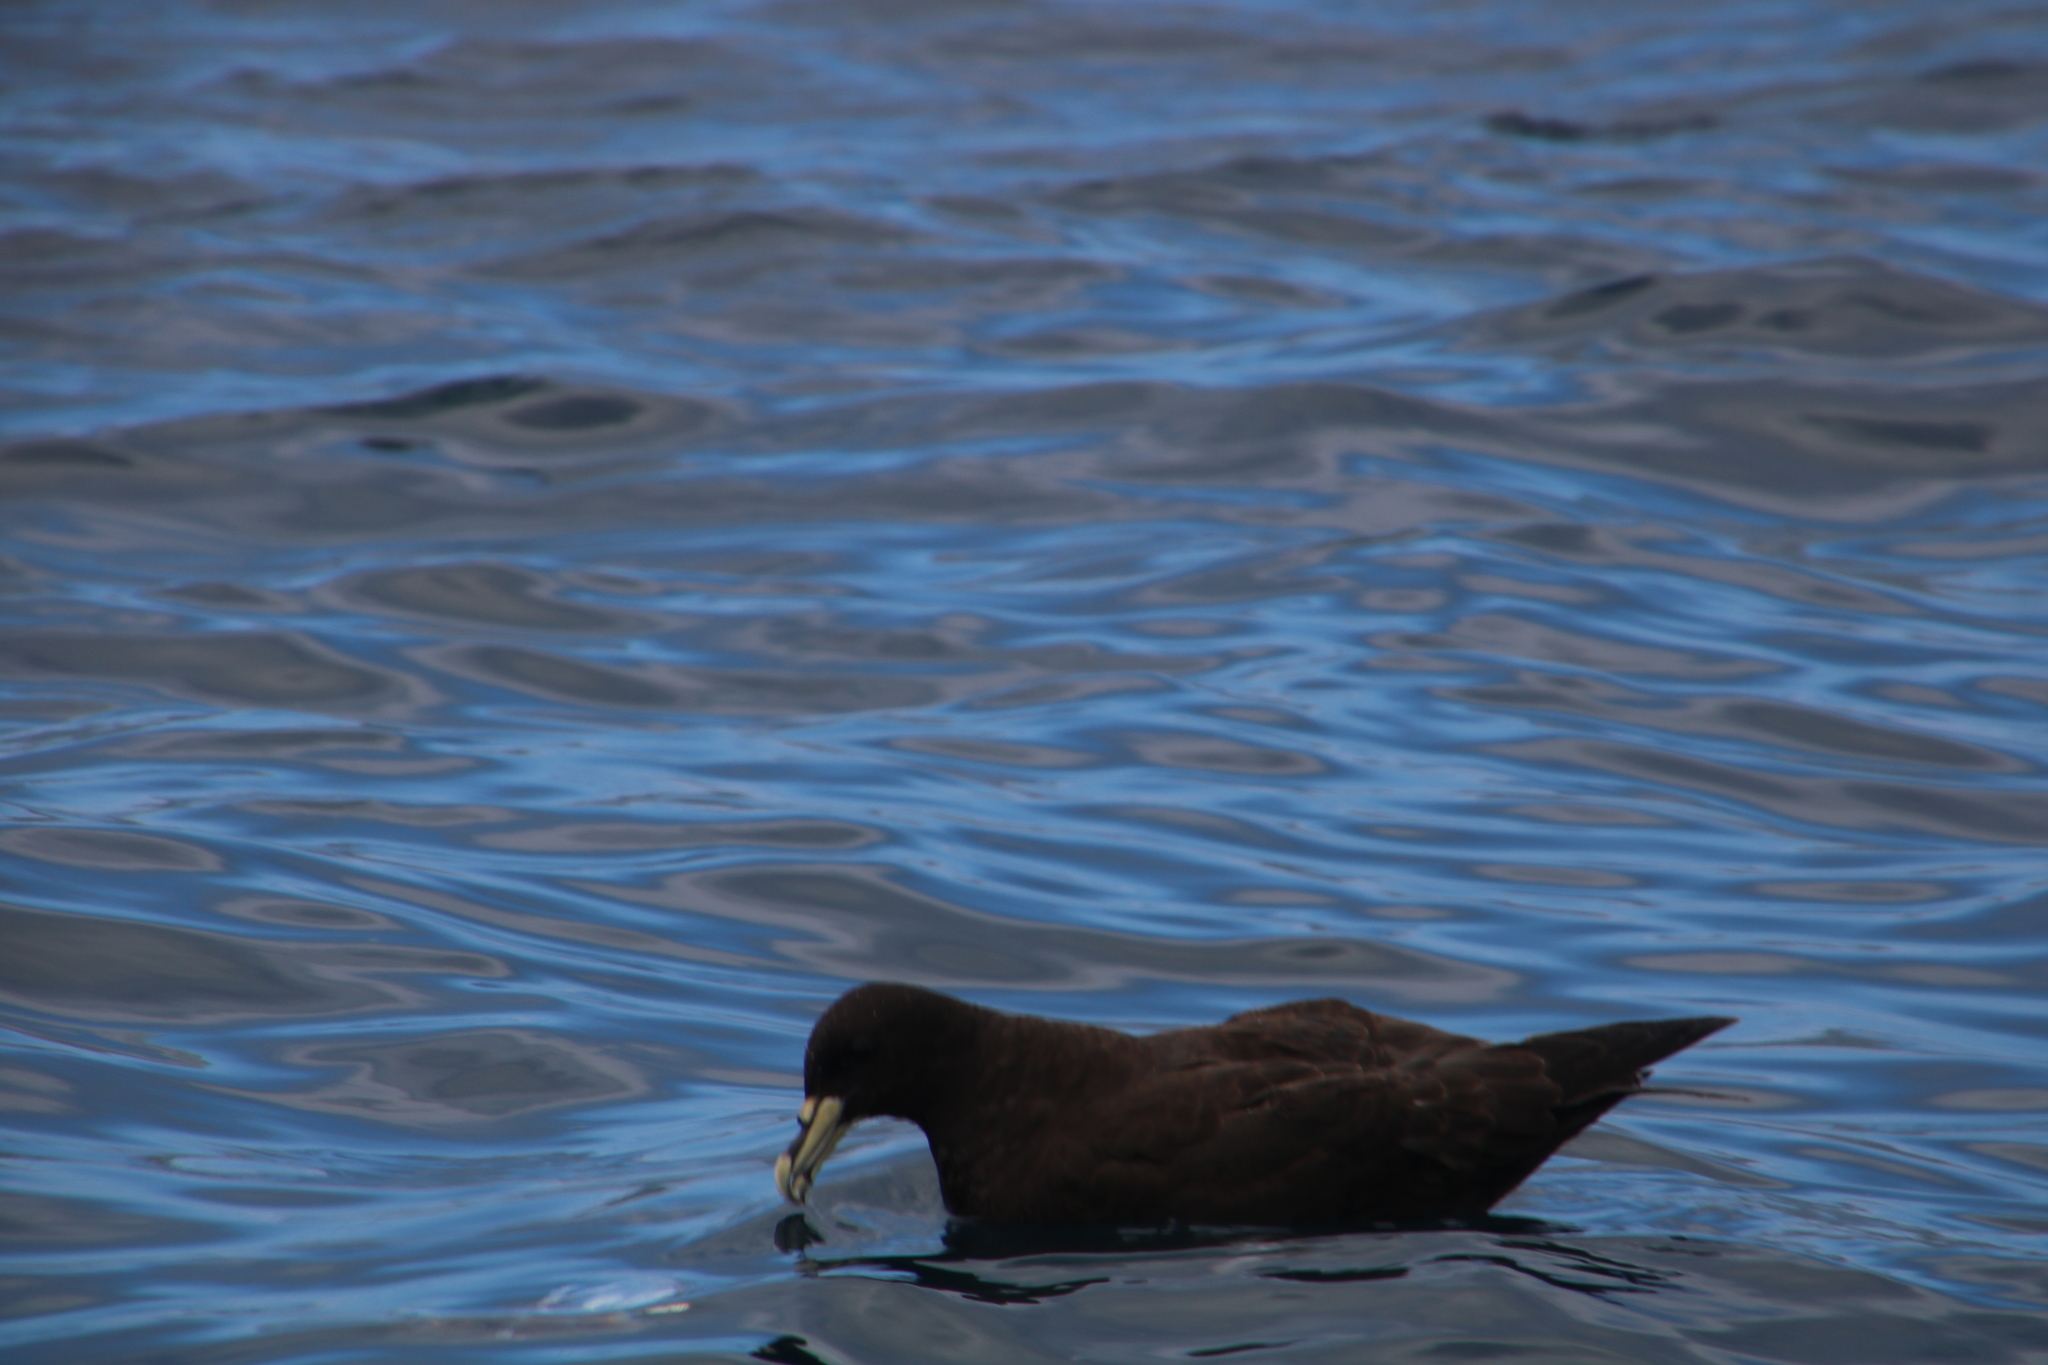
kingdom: Animalia
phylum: Chordata
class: Aves
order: Procellariiformes
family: Procellariidae
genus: Procellaria
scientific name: Procellaria aequinoctialis
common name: White-chinned petrel
